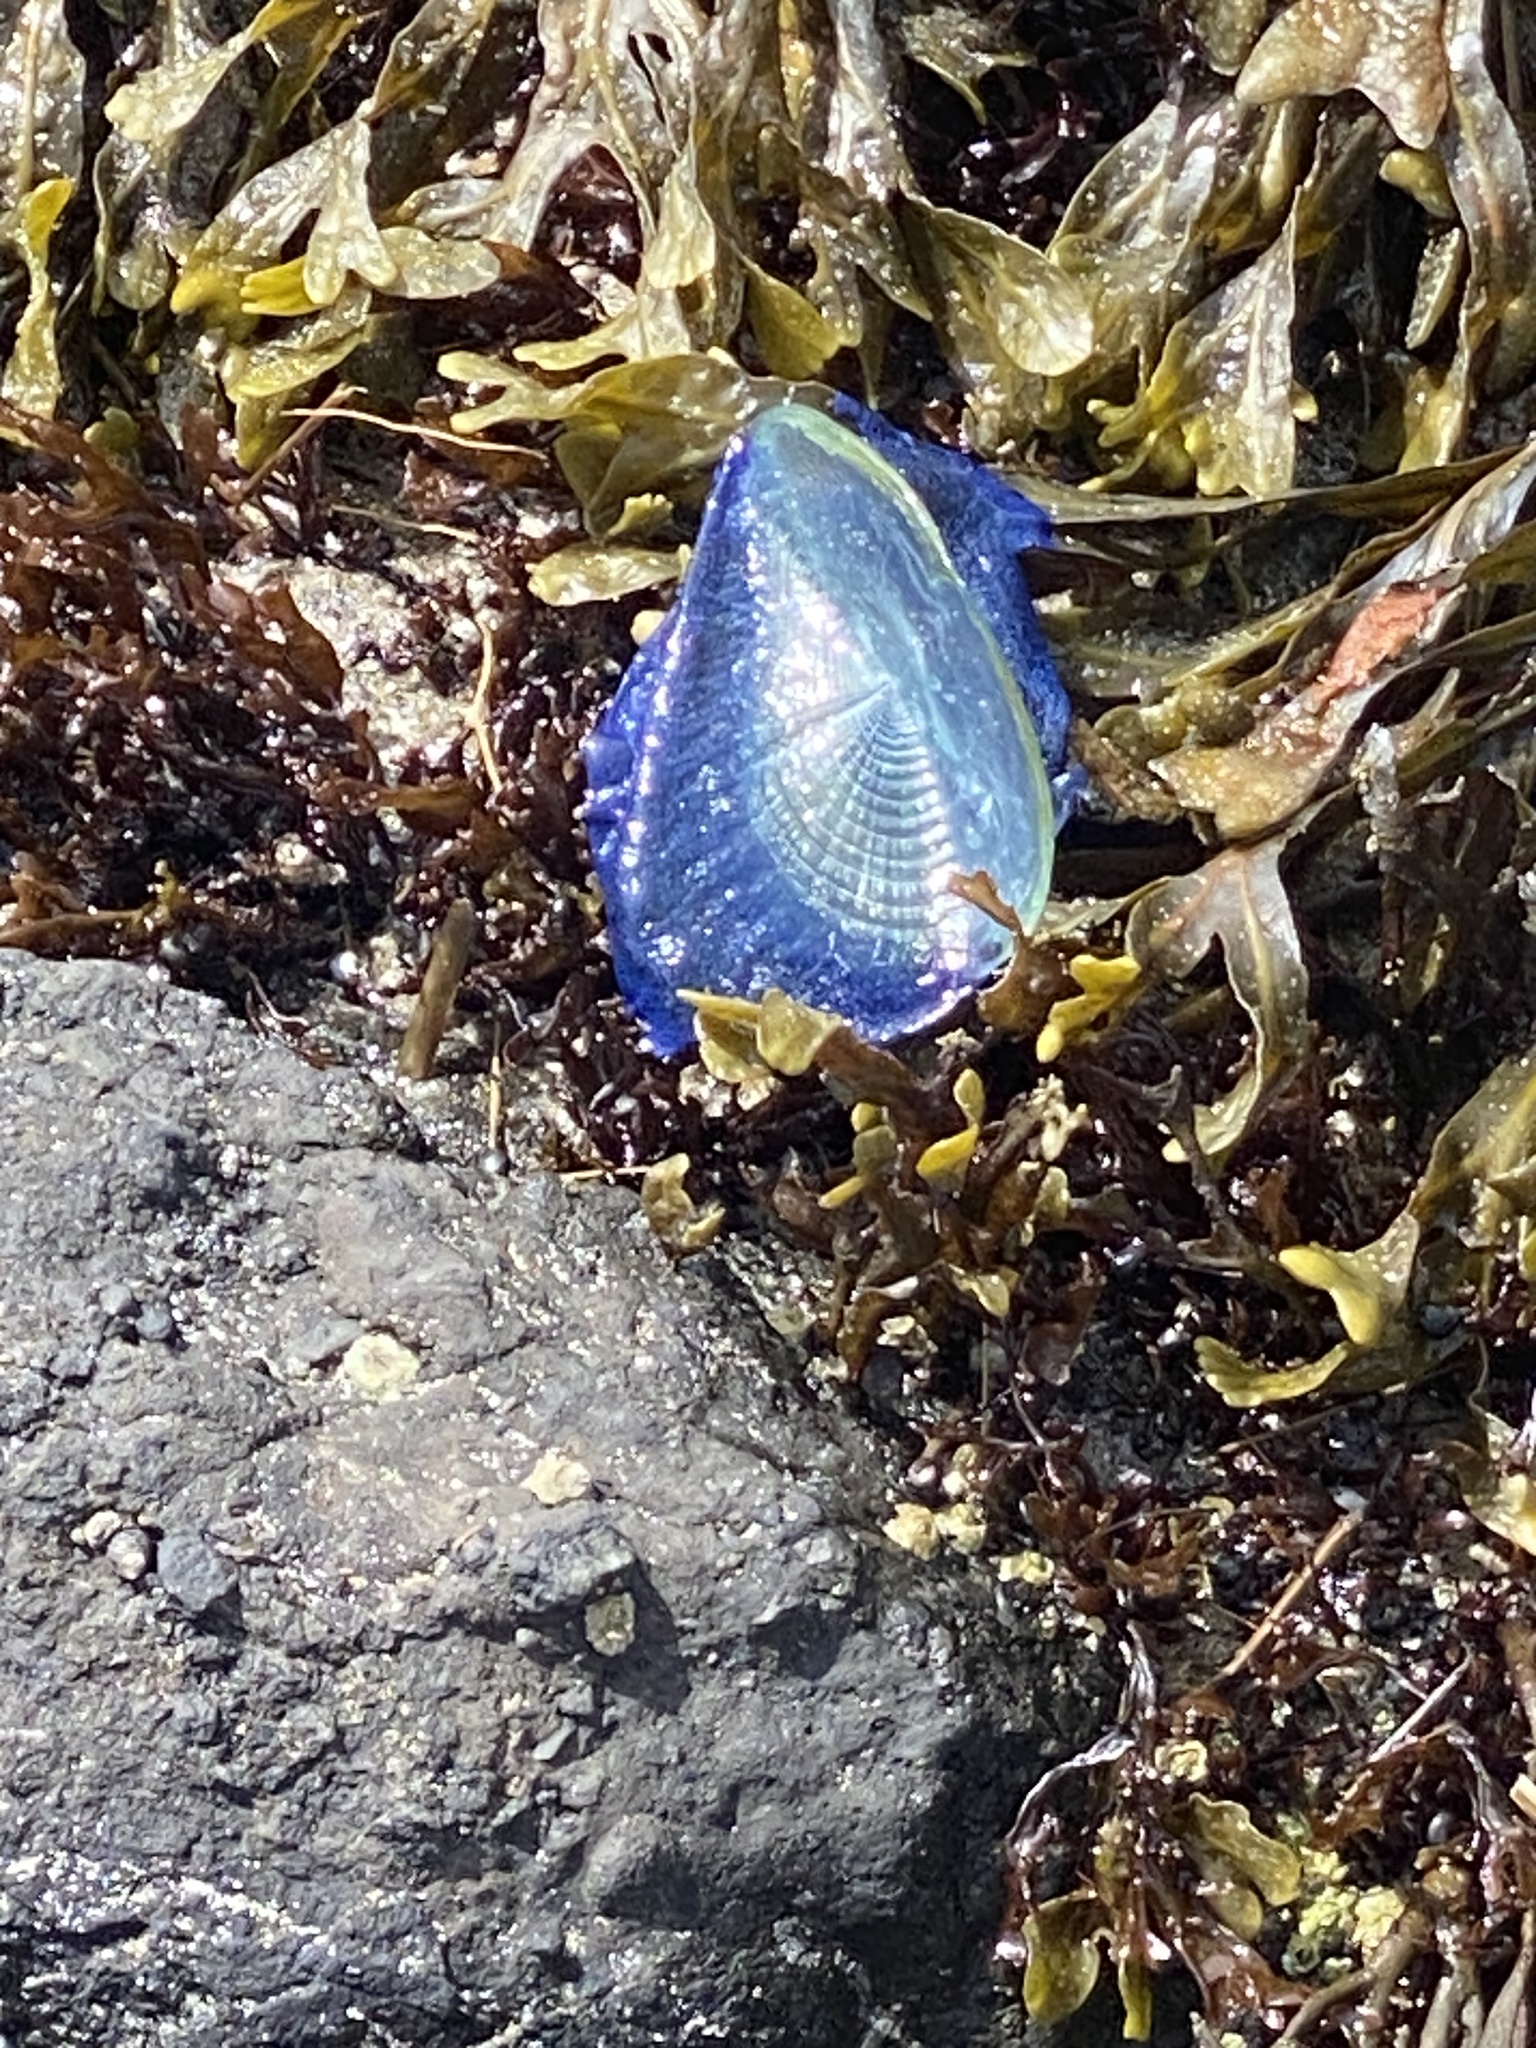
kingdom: Animalia
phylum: Cnidaria
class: Hydrozoa
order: Anthoathecata
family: Porpitidae
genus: Velella
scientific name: Velella velella
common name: By-the-wind-sailor
